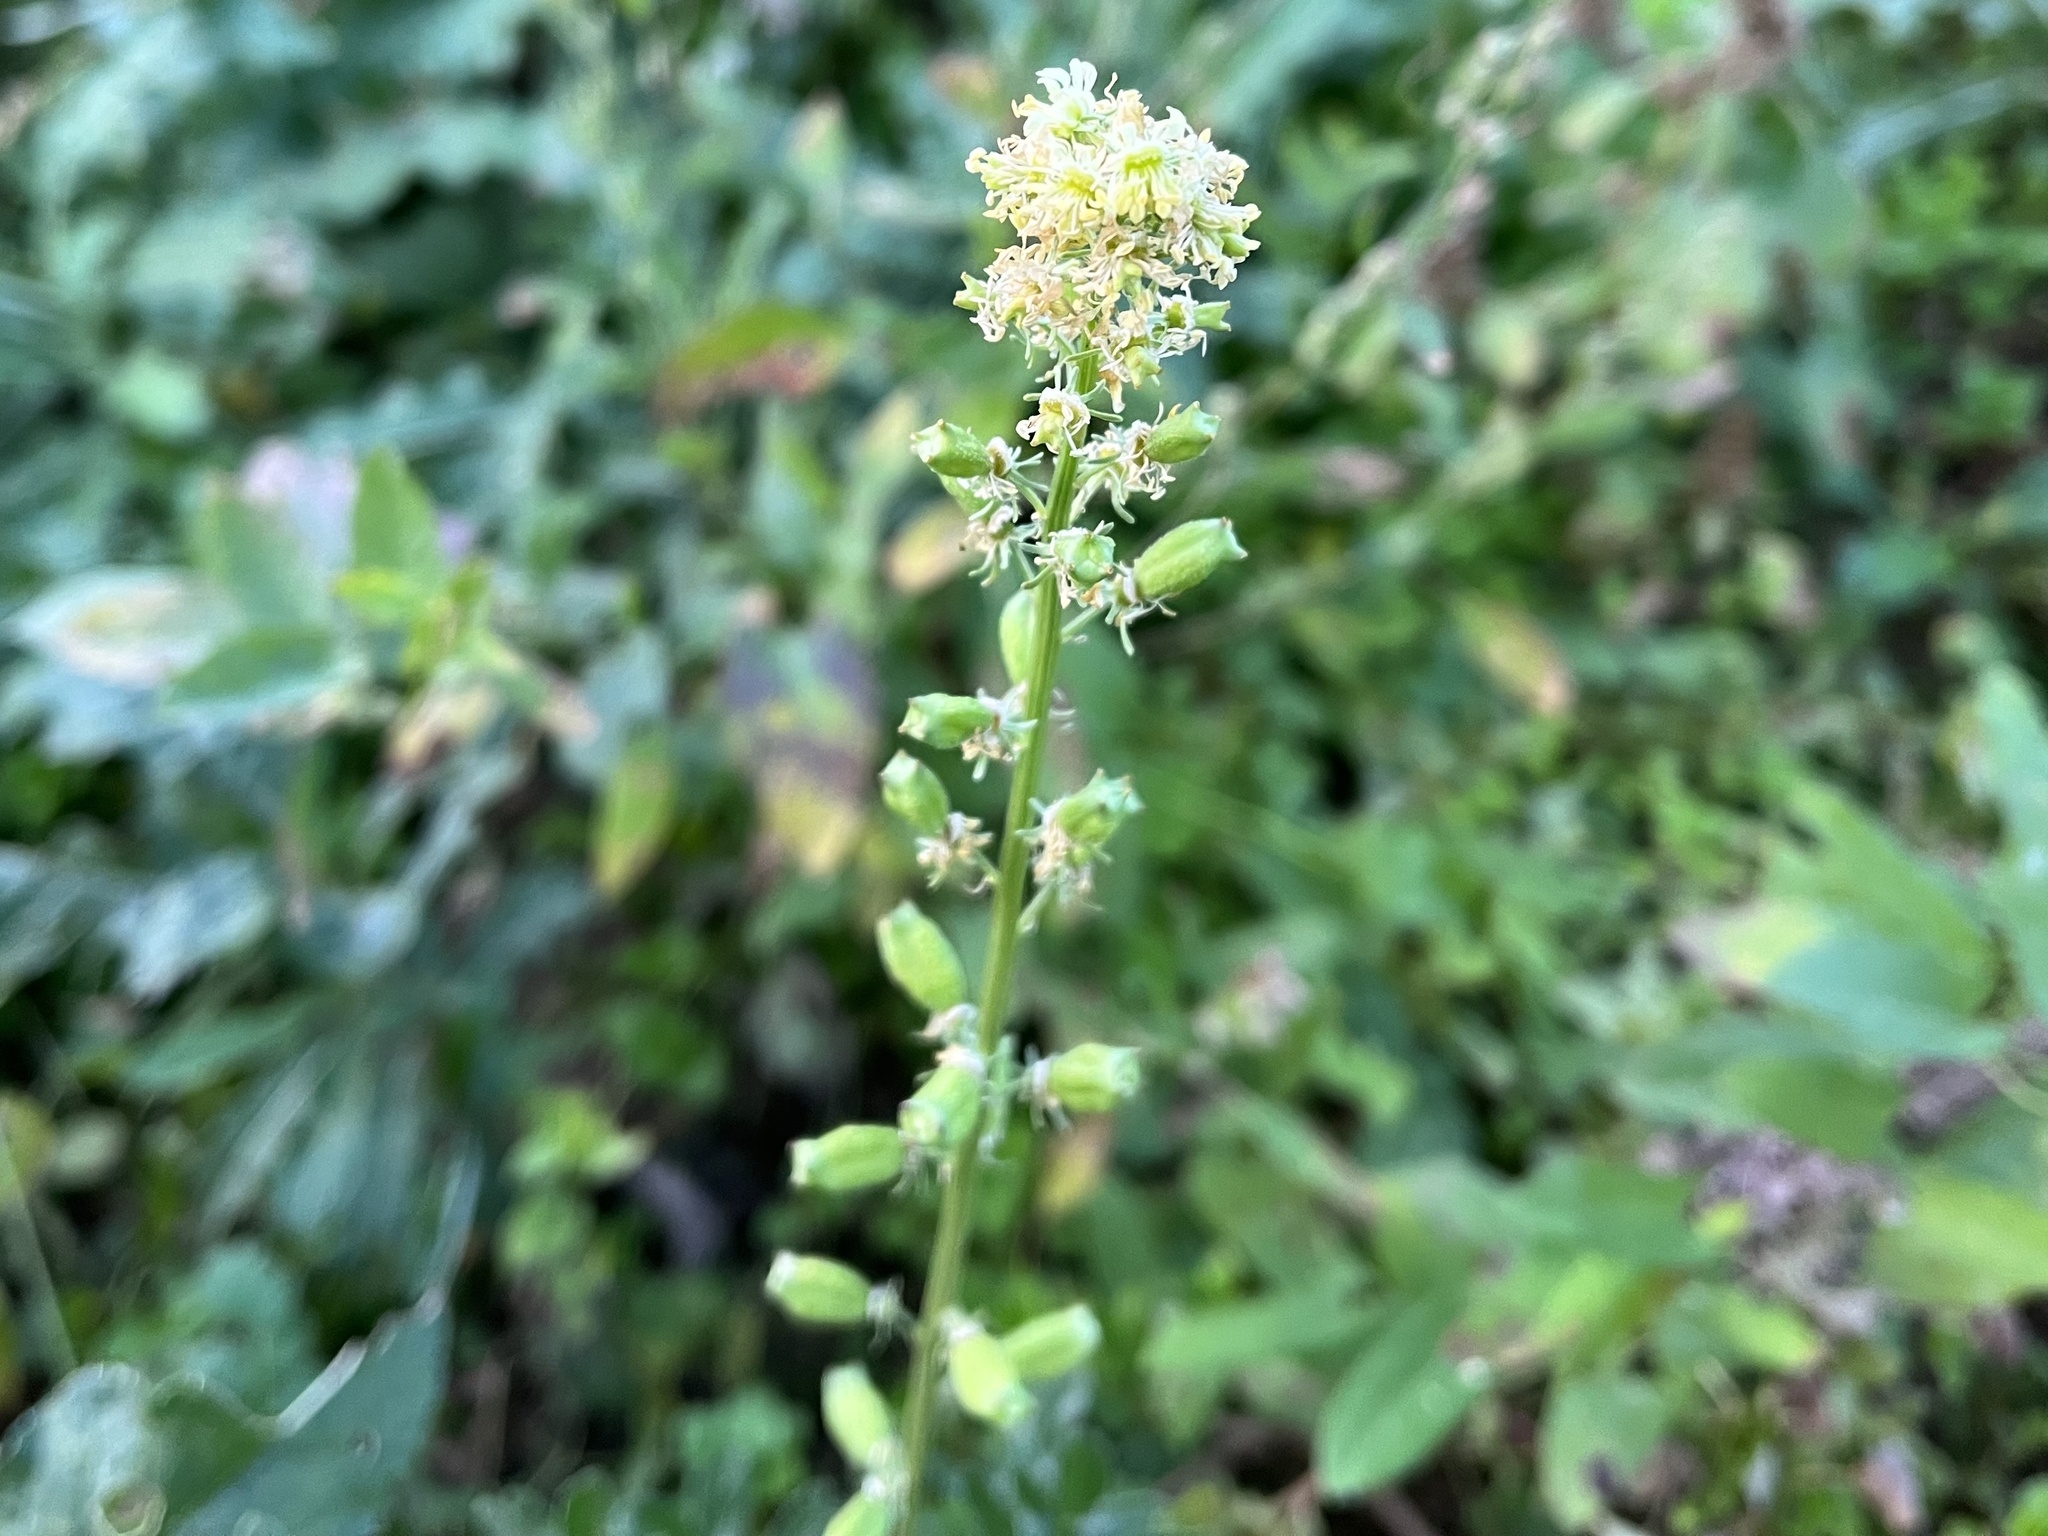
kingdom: Plantae
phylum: Tracheophyta
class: Magnoliopsida
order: Brassicales
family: Resedaceae
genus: Reseda
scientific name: Reseda lutea
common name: Wild mignonette
